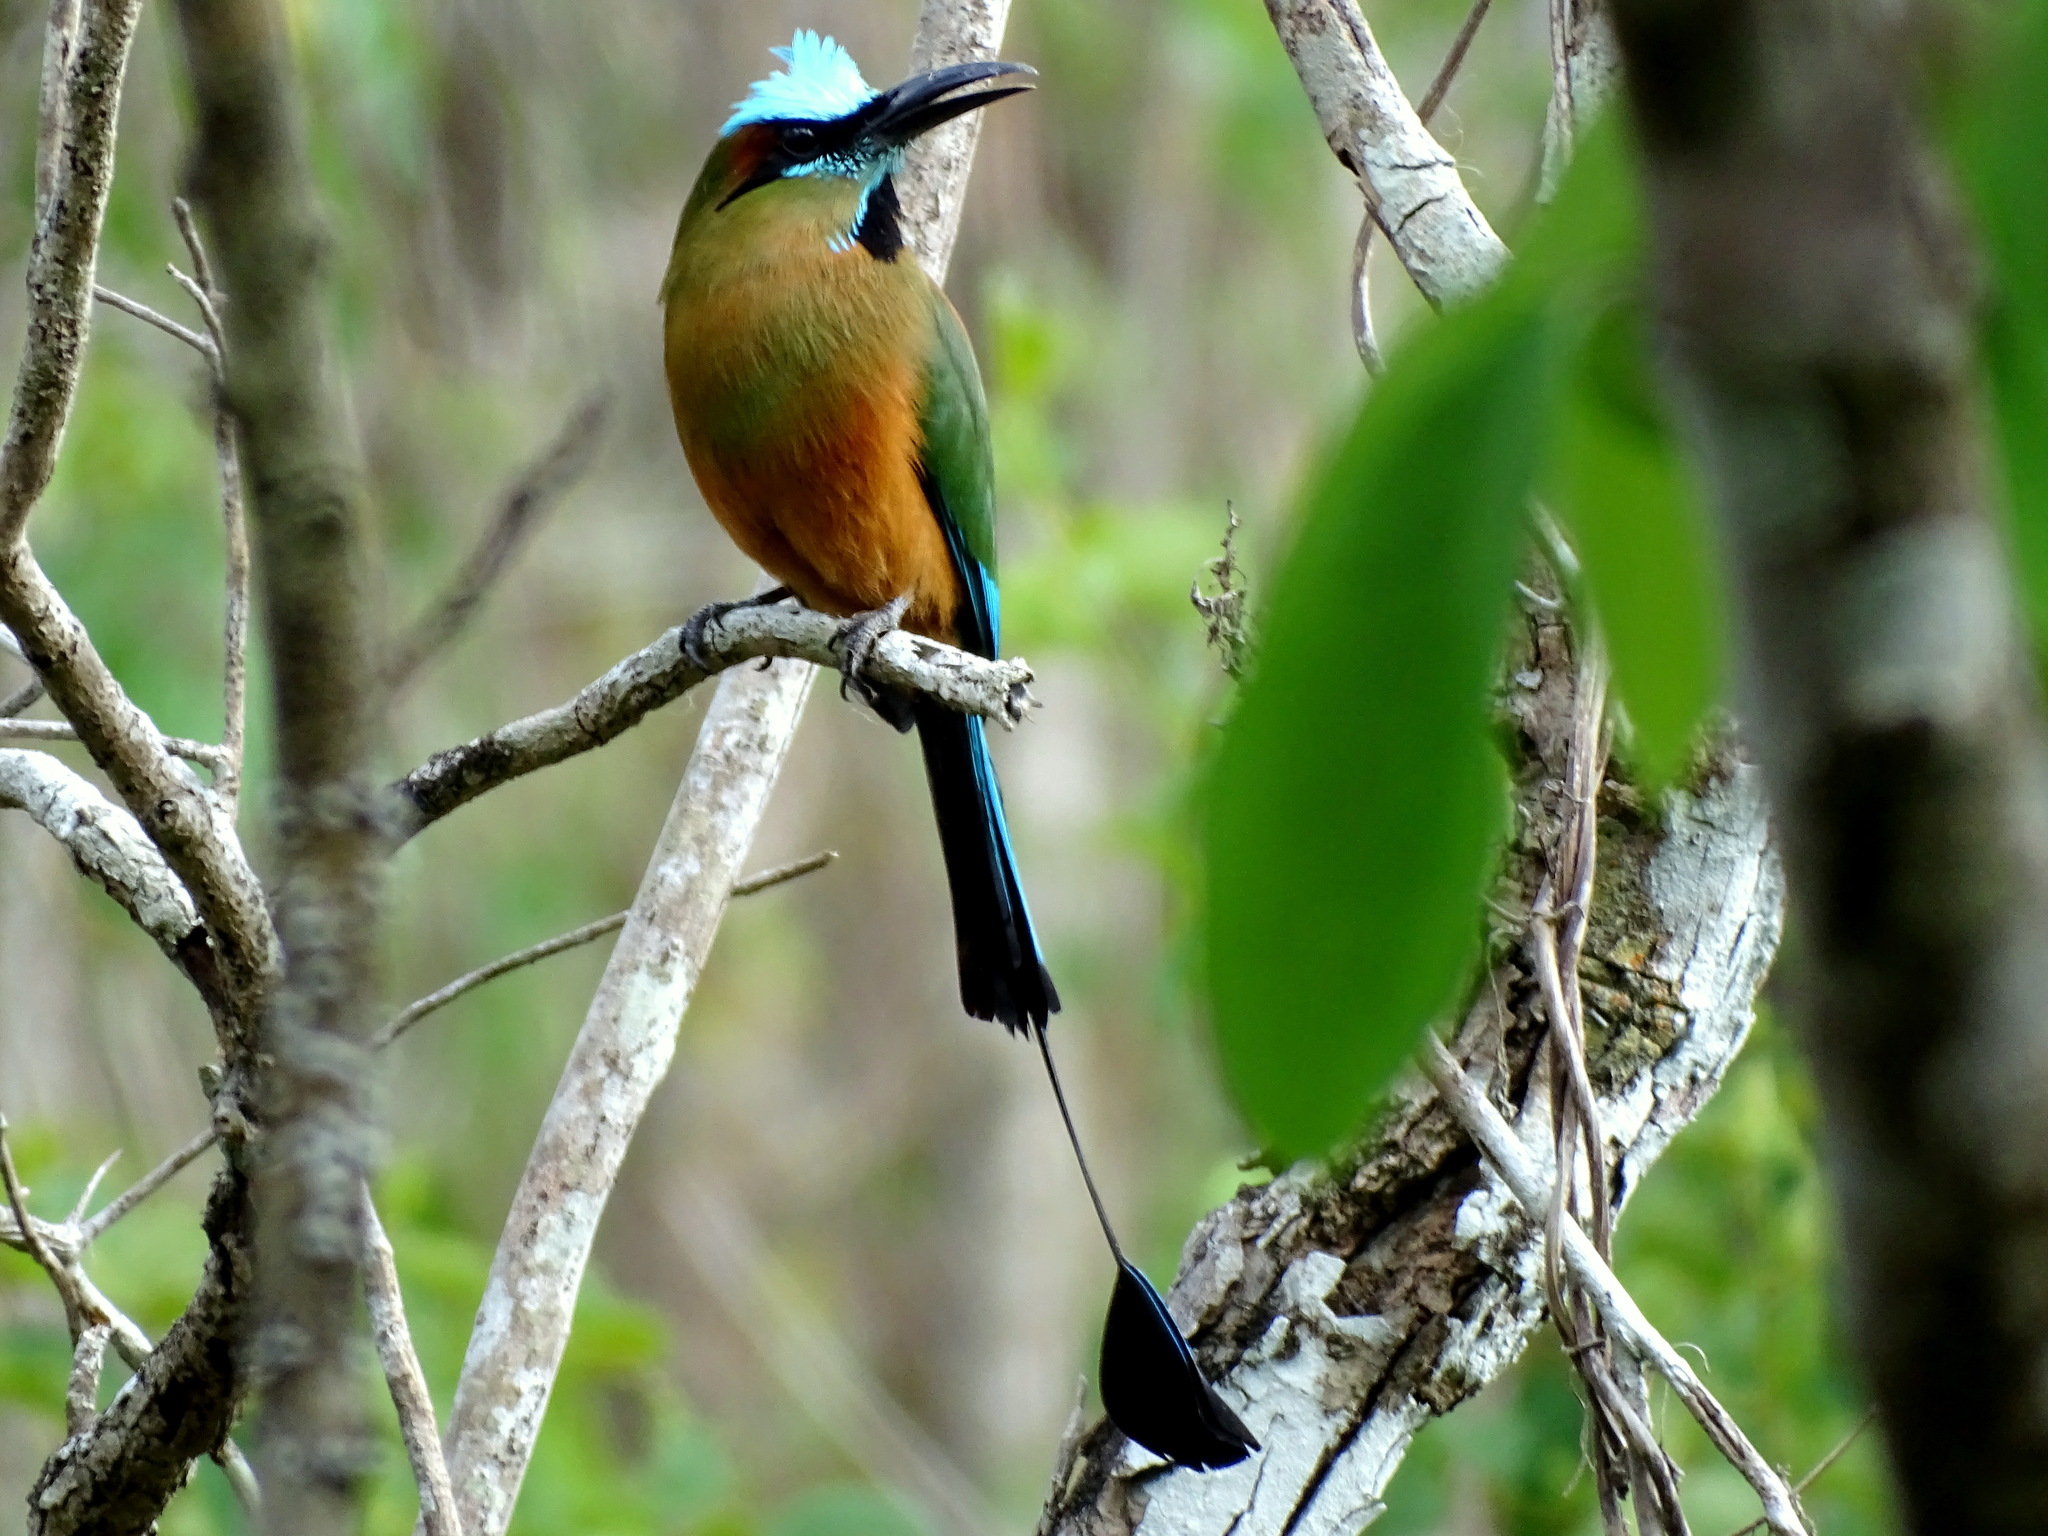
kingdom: Animalia
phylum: Chordata
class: Aves
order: Coraciiformes
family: Momotidae
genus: Eumomota
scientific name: Eumomota superciliosa
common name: Turquoise-browed motmot
